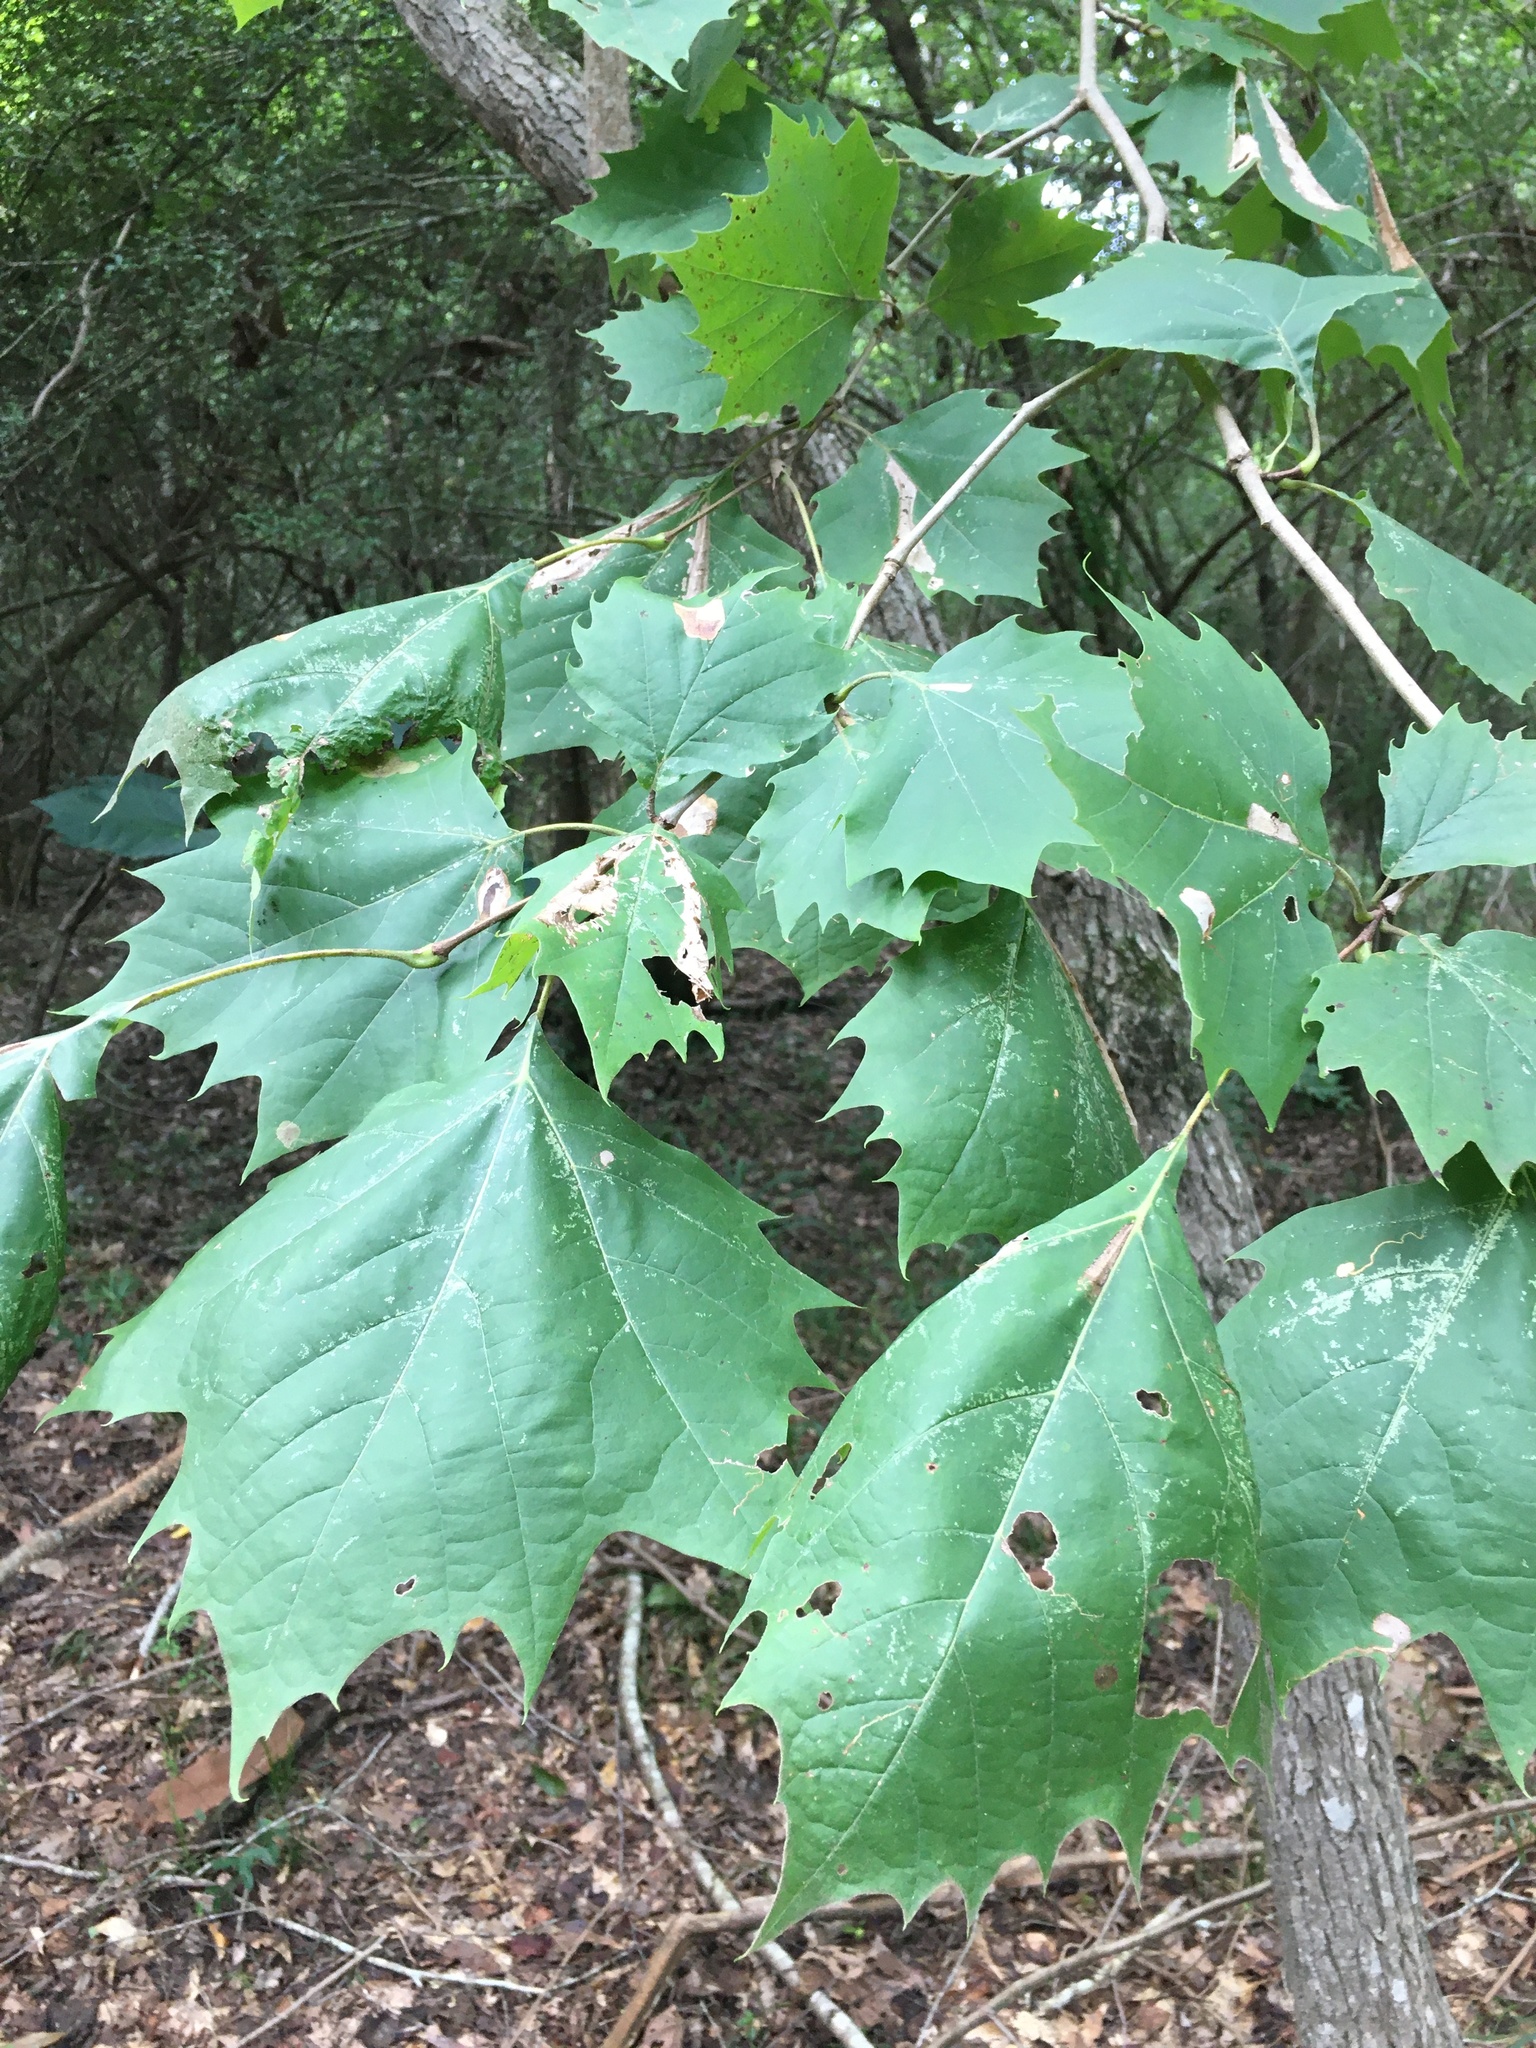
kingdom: Plantae
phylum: Tracheophyta
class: Magnoliopsida
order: Proteales
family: Platanaceae
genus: Platanus
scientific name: Platanus occidentalis
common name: American sycamore
